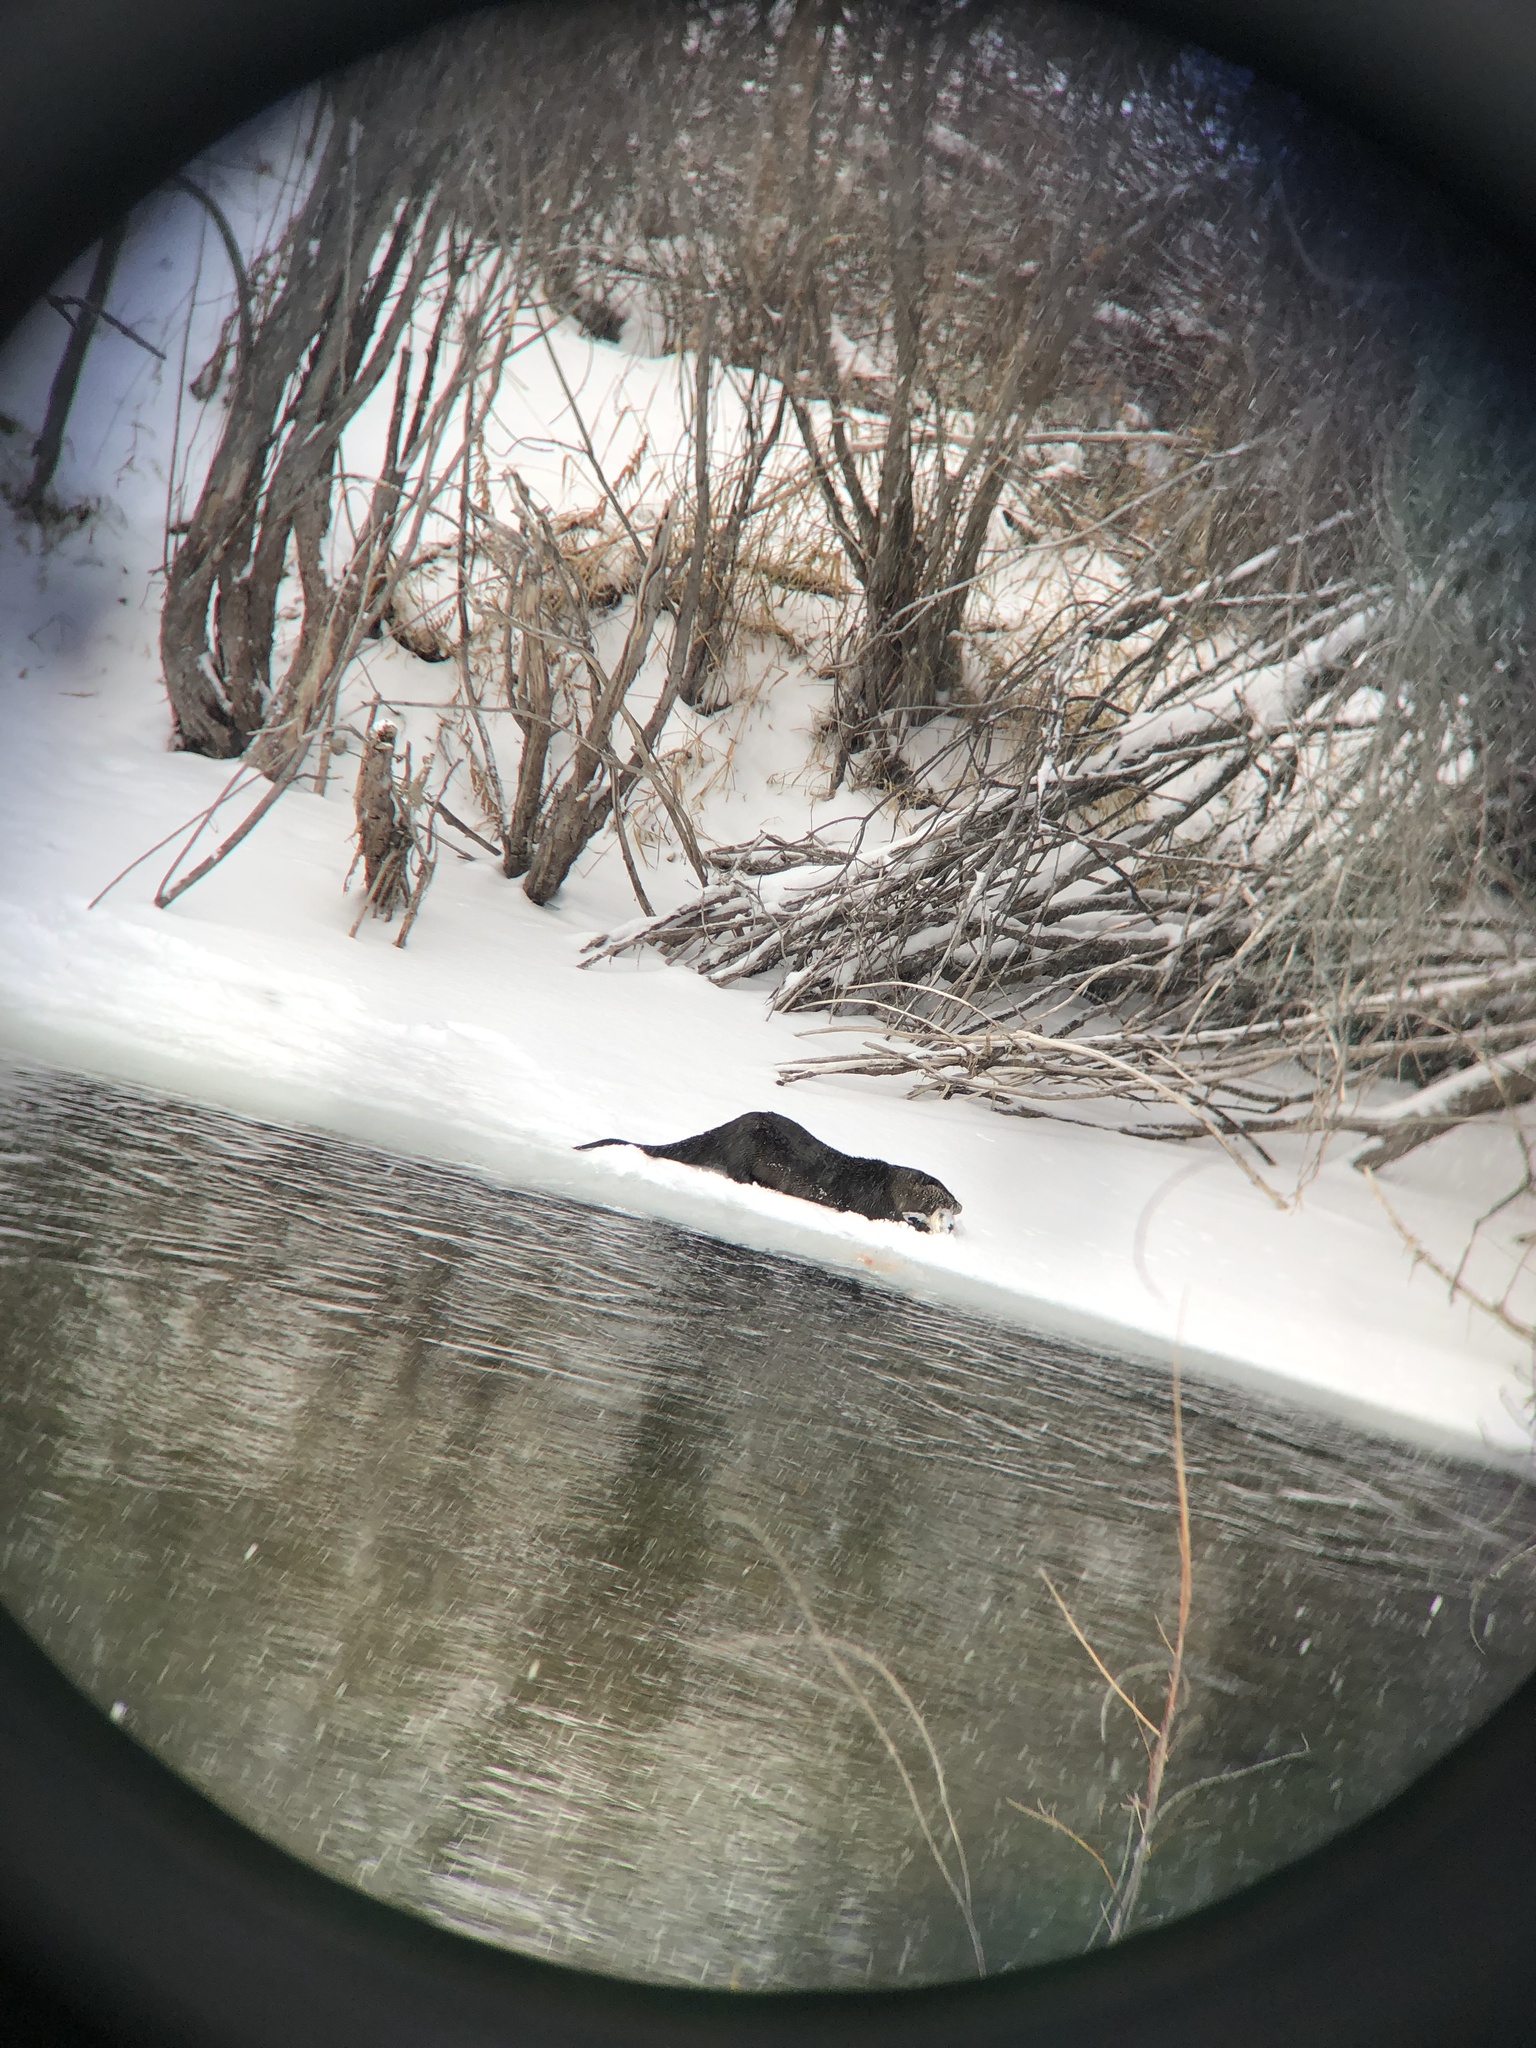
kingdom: Animalia
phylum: Chordata
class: Mammalia
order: Carnivora
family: Mustelidae
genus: Lontra
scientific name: Lontra canadensis
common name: North american river otter
